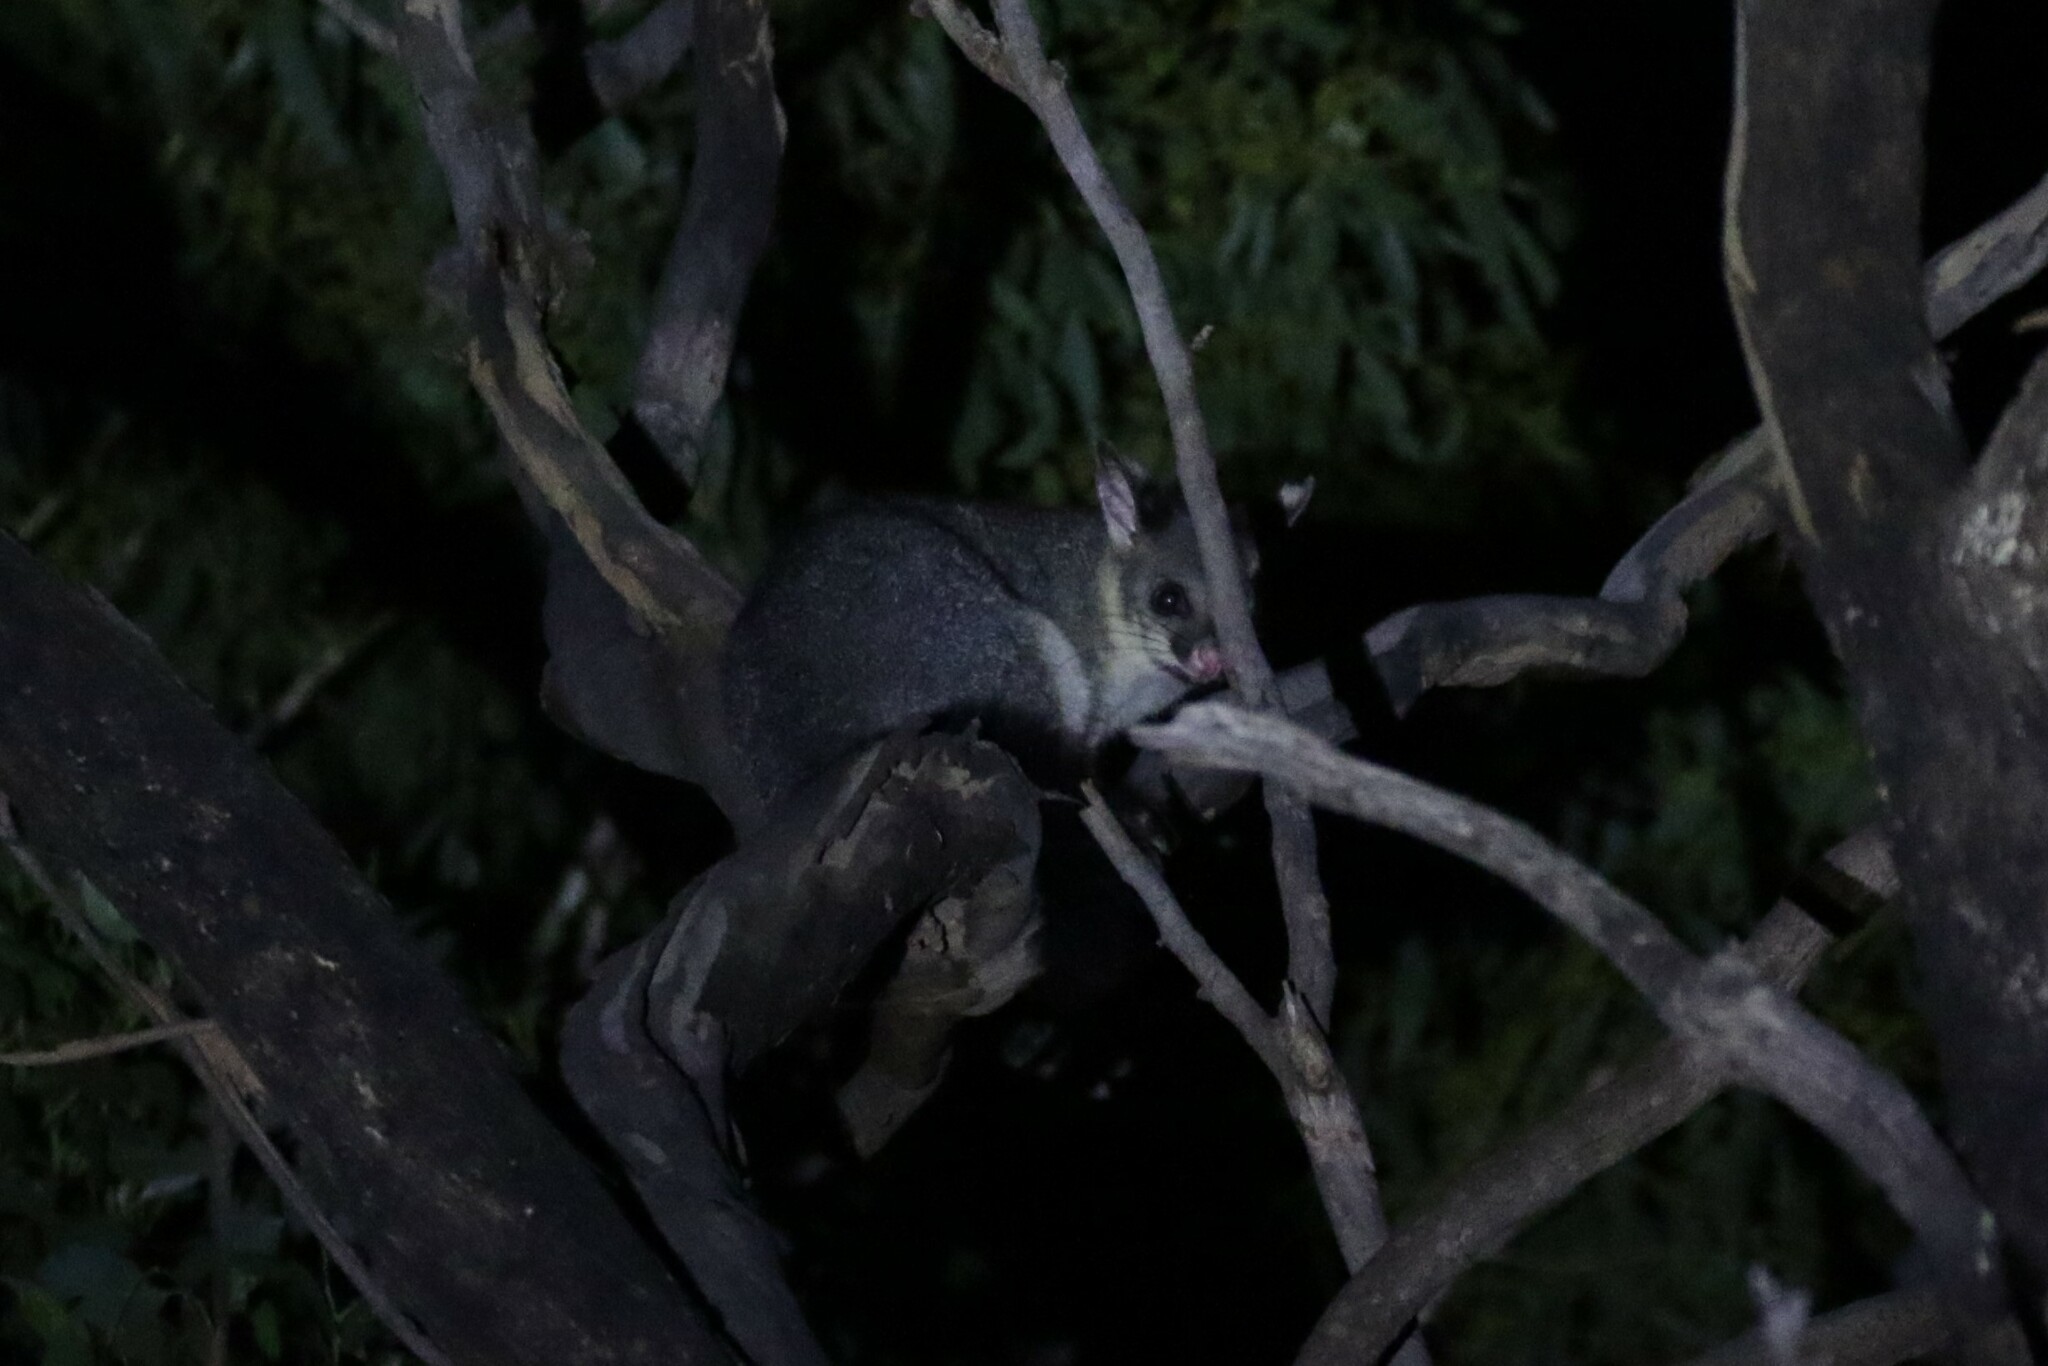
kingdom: Animalia
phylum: Chordata
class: Mammalia
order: Diprotodontia
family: Phalangeridae
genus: Trichosurus
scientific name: Trichosurus vulpecula
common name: Common brushtail
